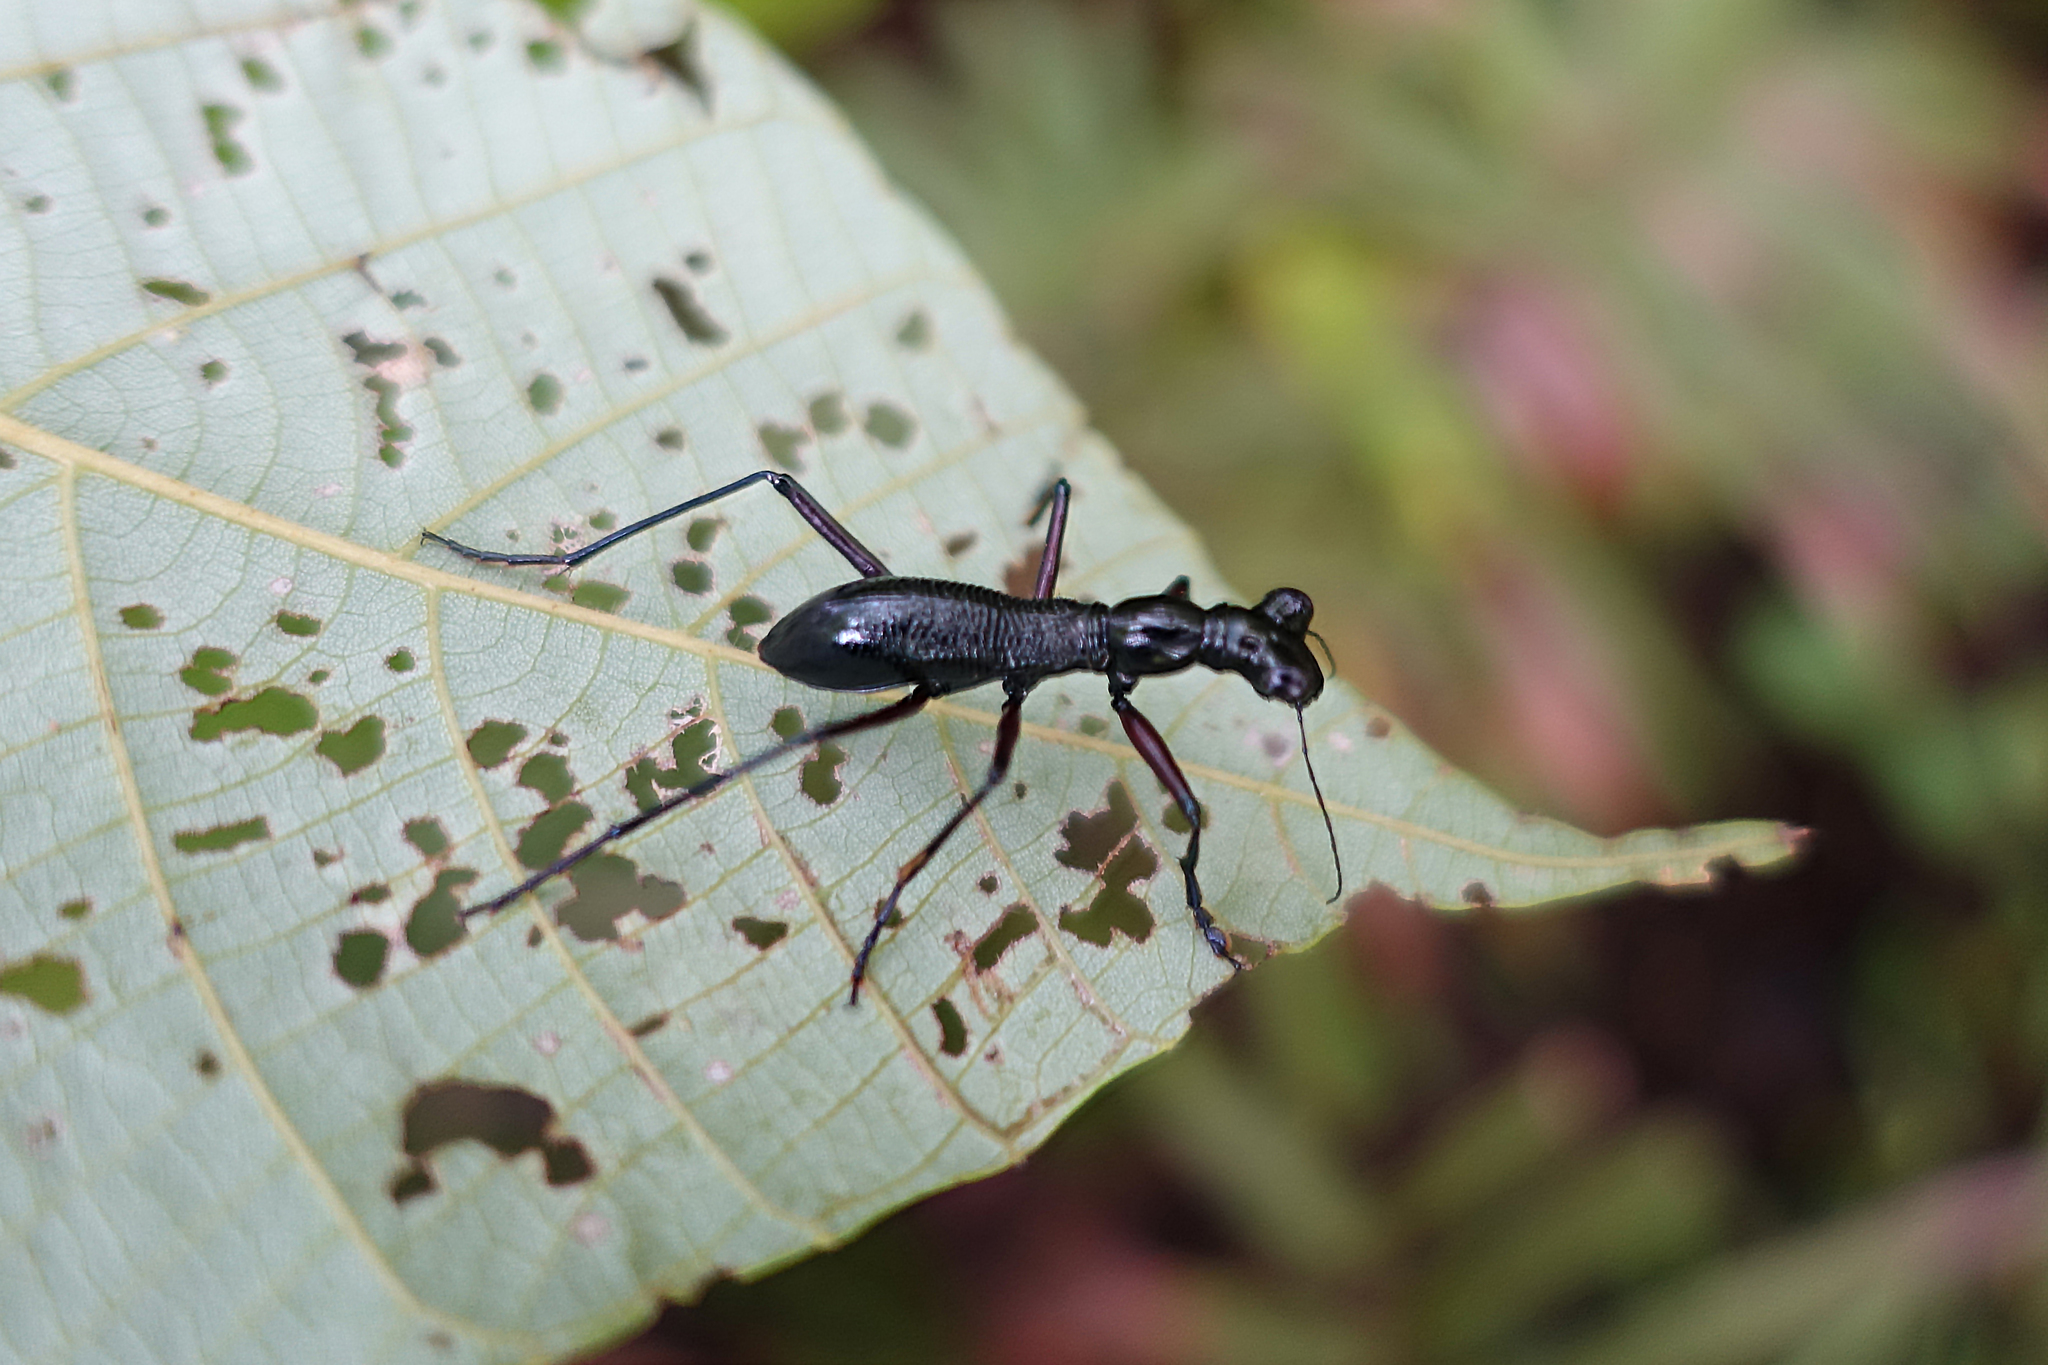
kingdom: Animalia
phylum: Arthropoda
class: Insecta
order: Coleoptera
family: Carabidae
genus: Tricondyla
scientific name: Tricondyla aptera
